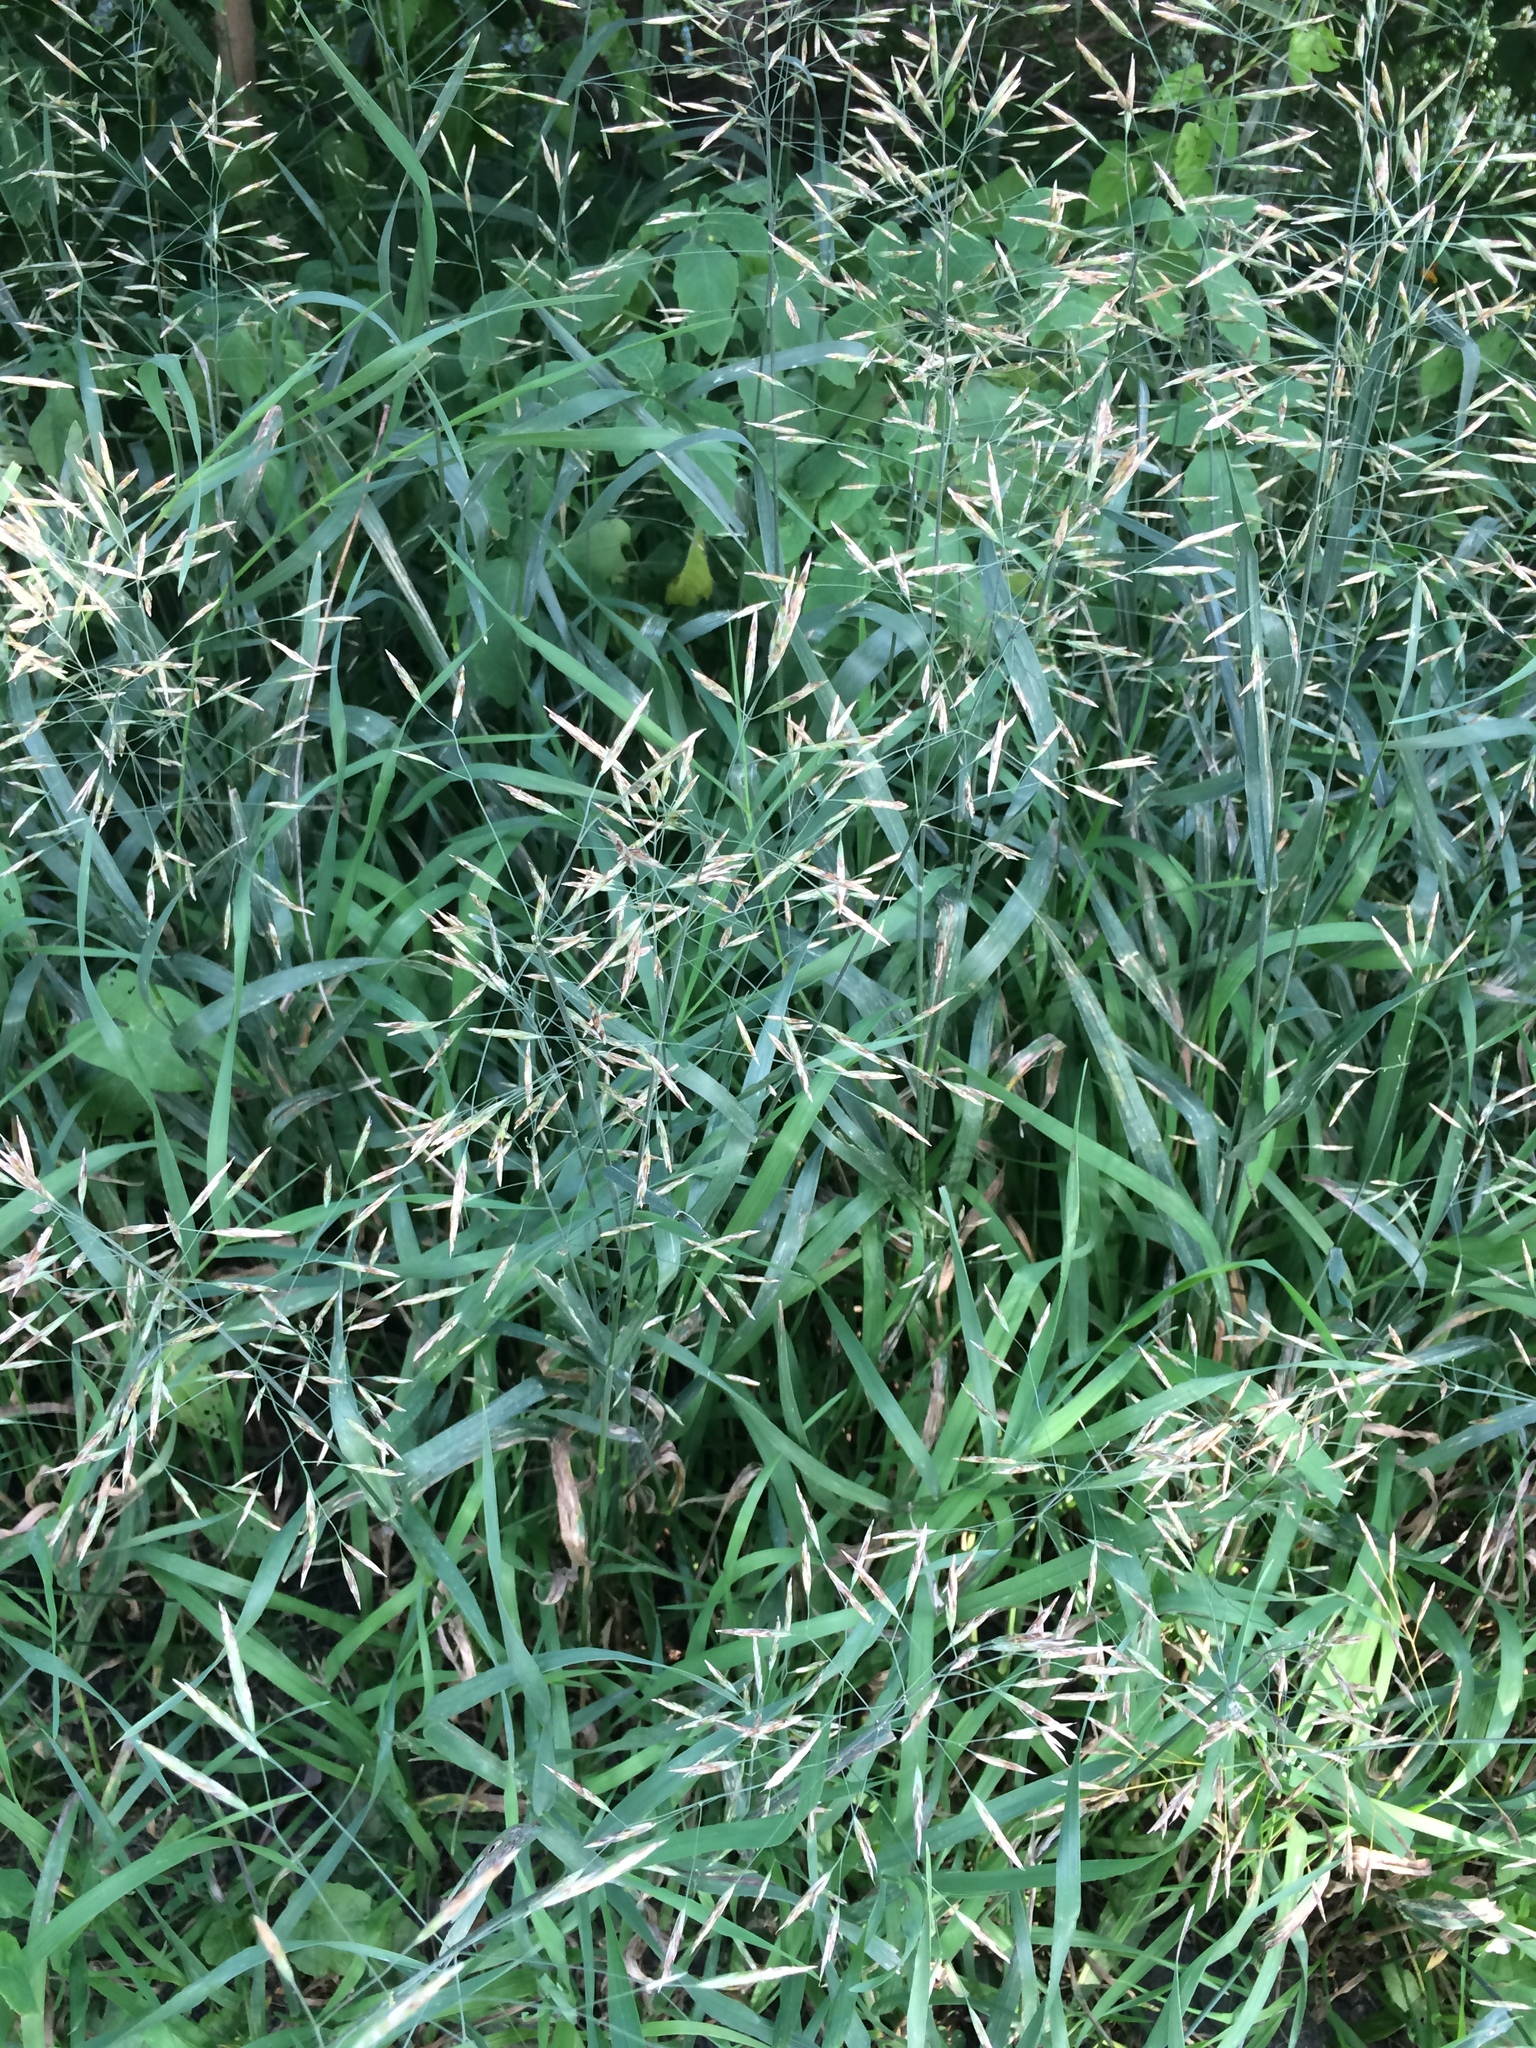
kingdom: Plantae
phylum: Tracheophyta
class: Liliopsida
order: Poales
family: Poaceae
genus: Bromus
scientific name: Bromus inermis
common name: Smooth brome
